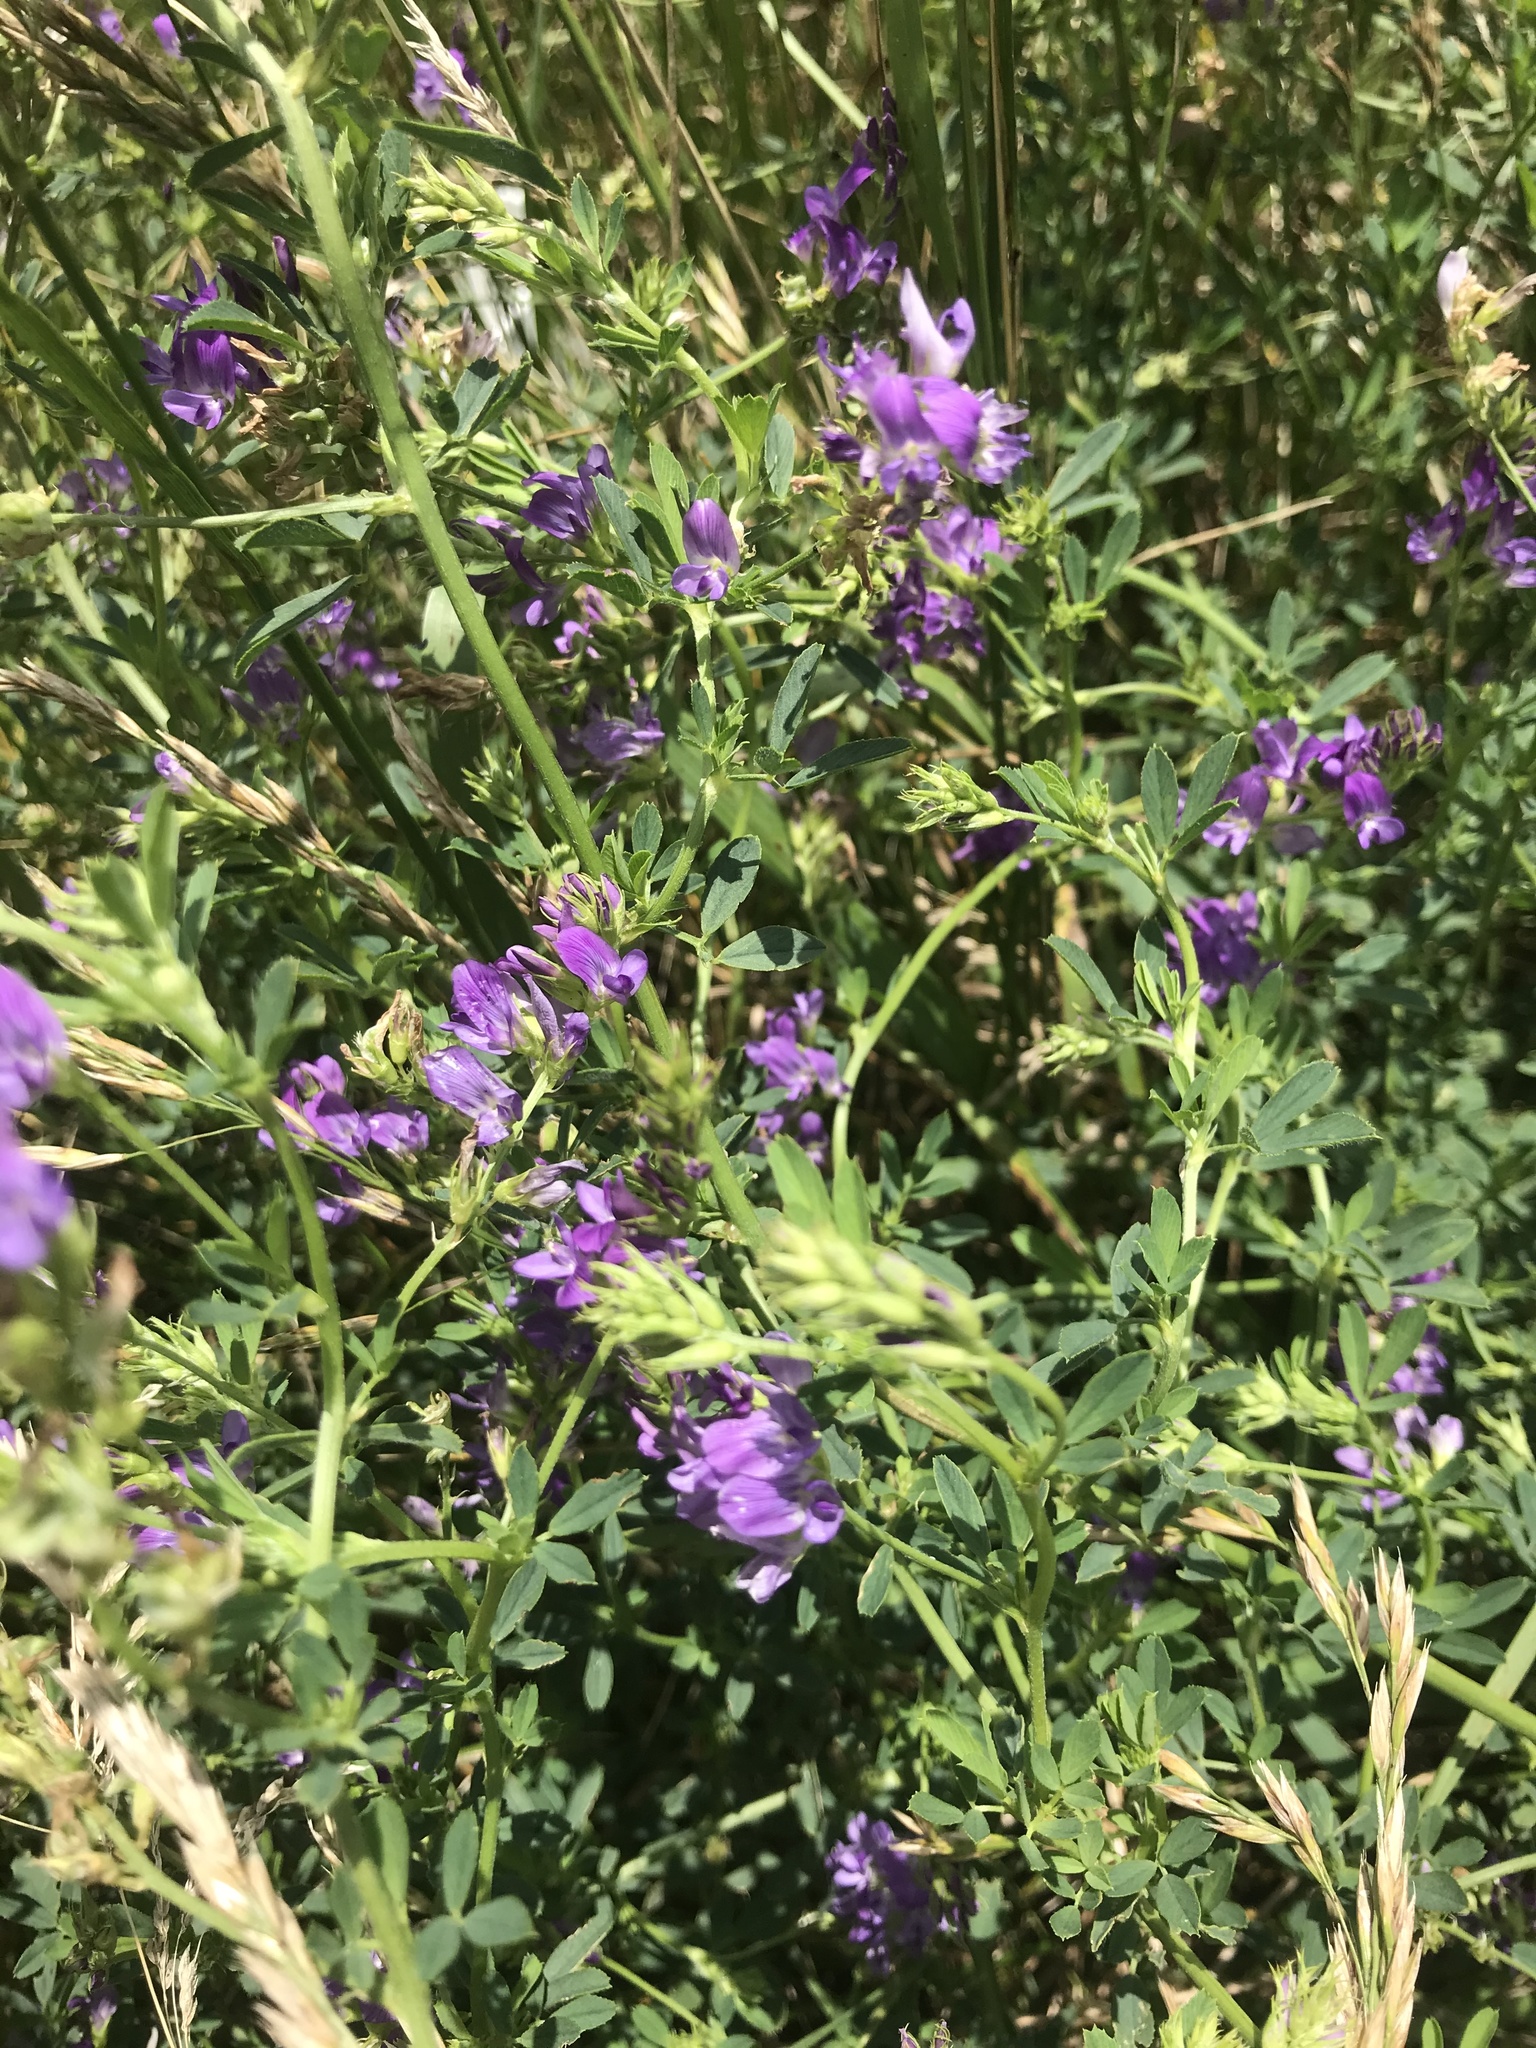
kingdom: Plantae
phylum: Tracheophyta
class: Magnoliopsida
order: Fabales
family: Fabaceae
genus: Medicago
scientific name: Medicago sativa
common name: Alfalfa
